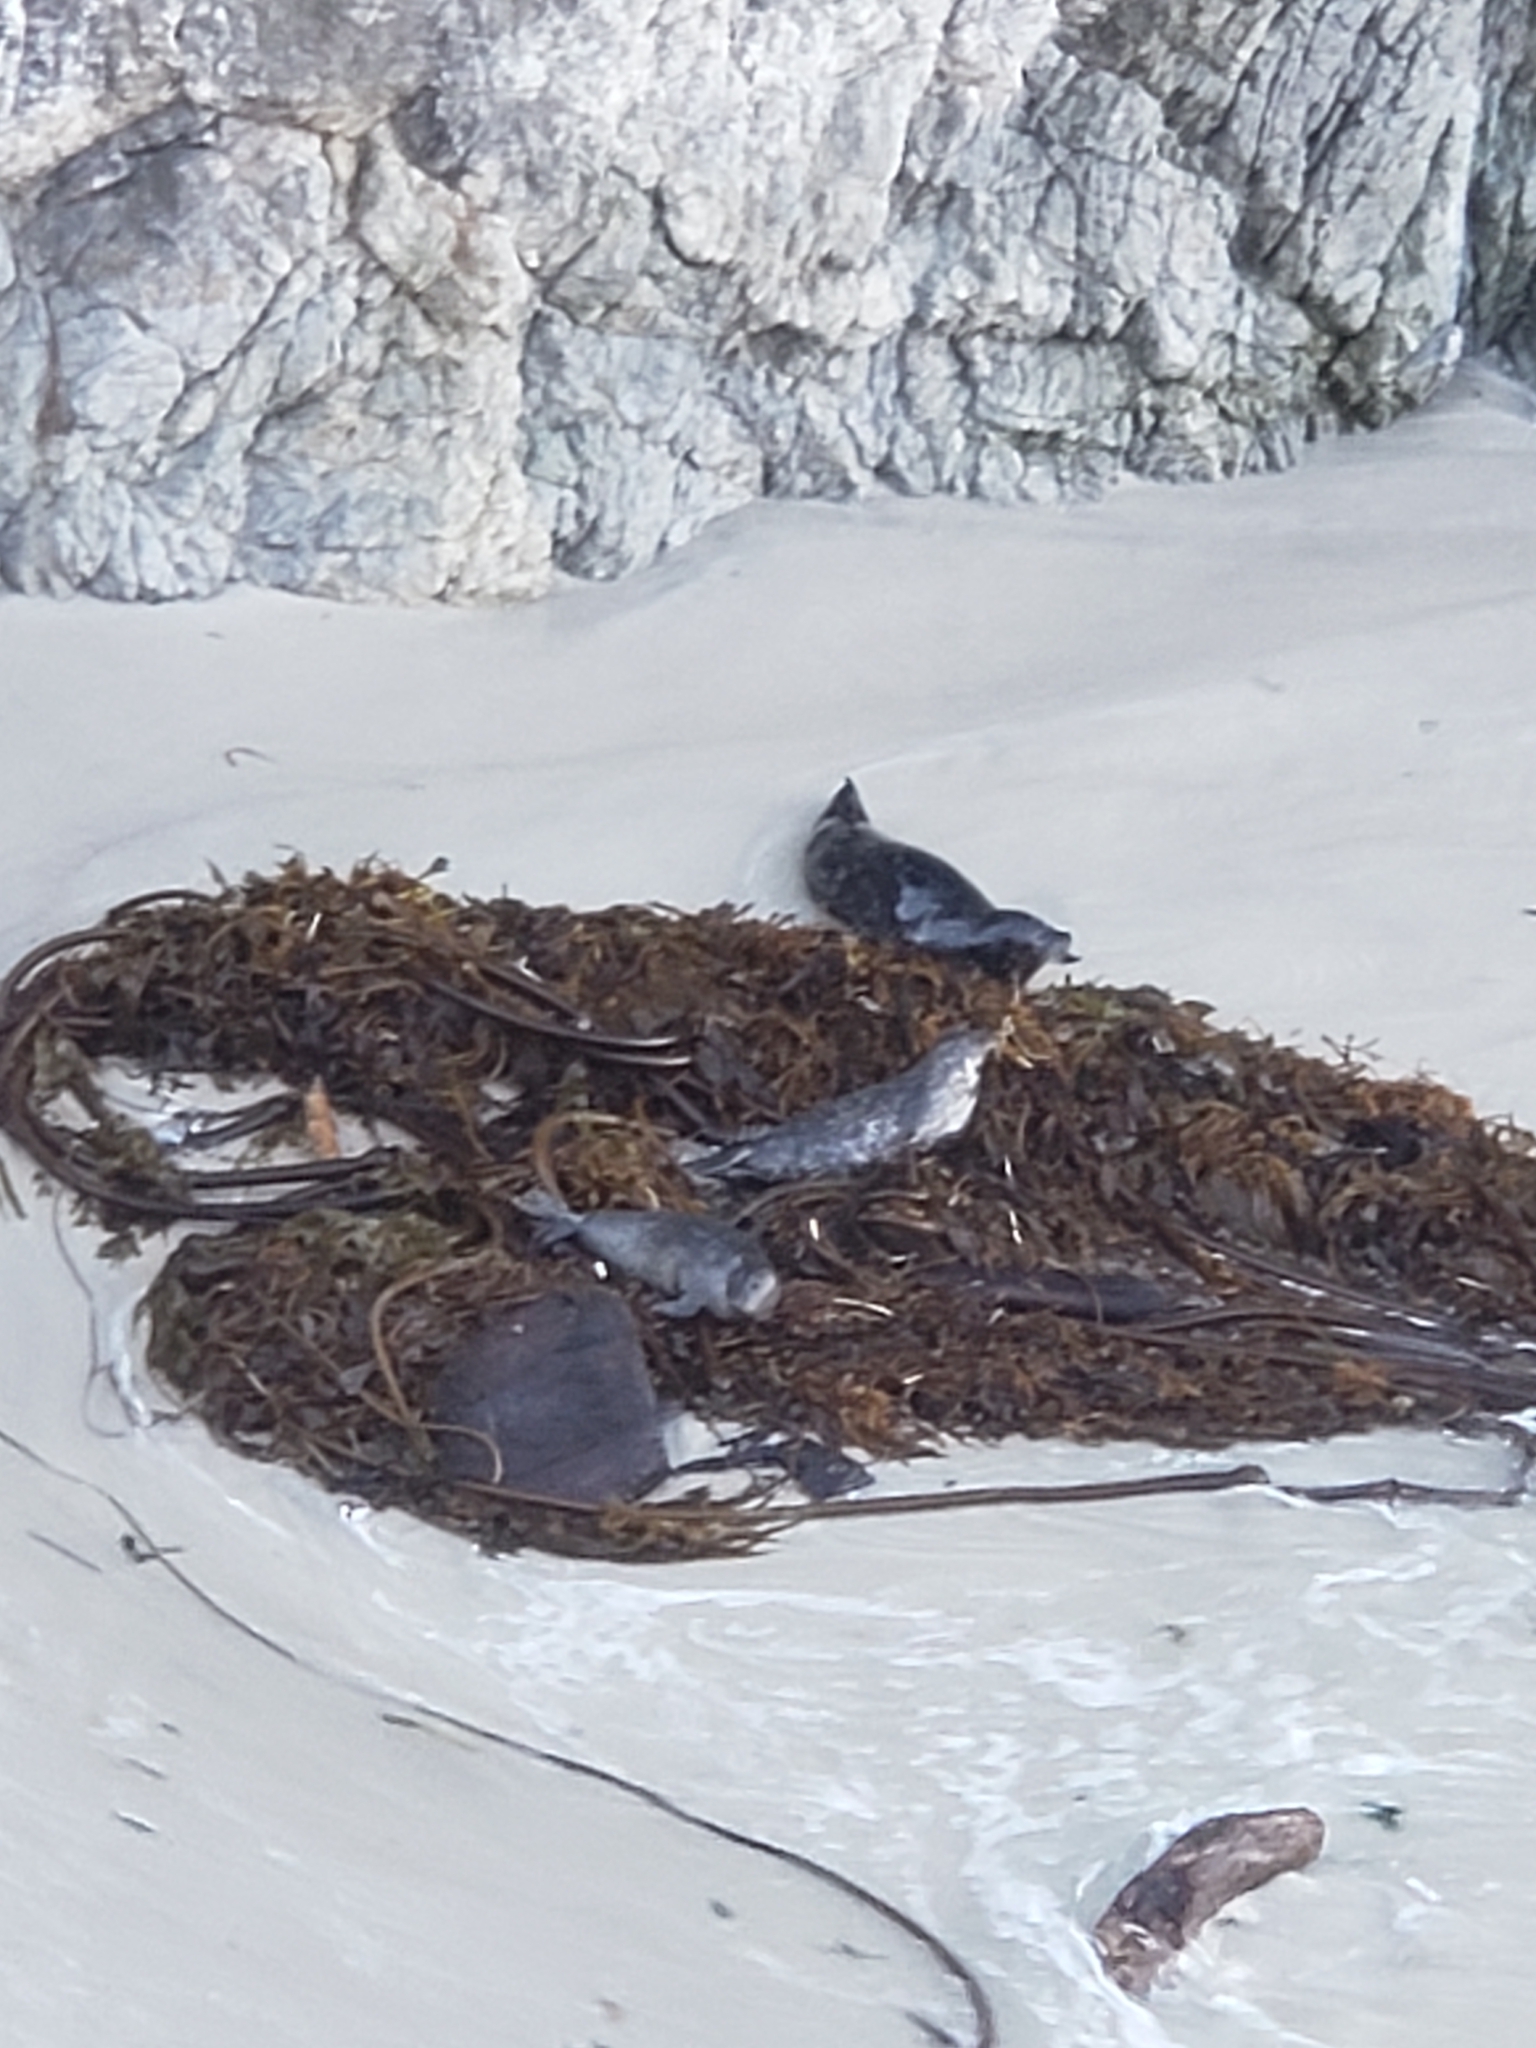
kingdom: Animalia
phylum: Chordata
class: Mammalia
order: Carnivora
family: Phocidae
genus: Phoca
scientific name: Phoca vitulina
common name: Harbor seal
